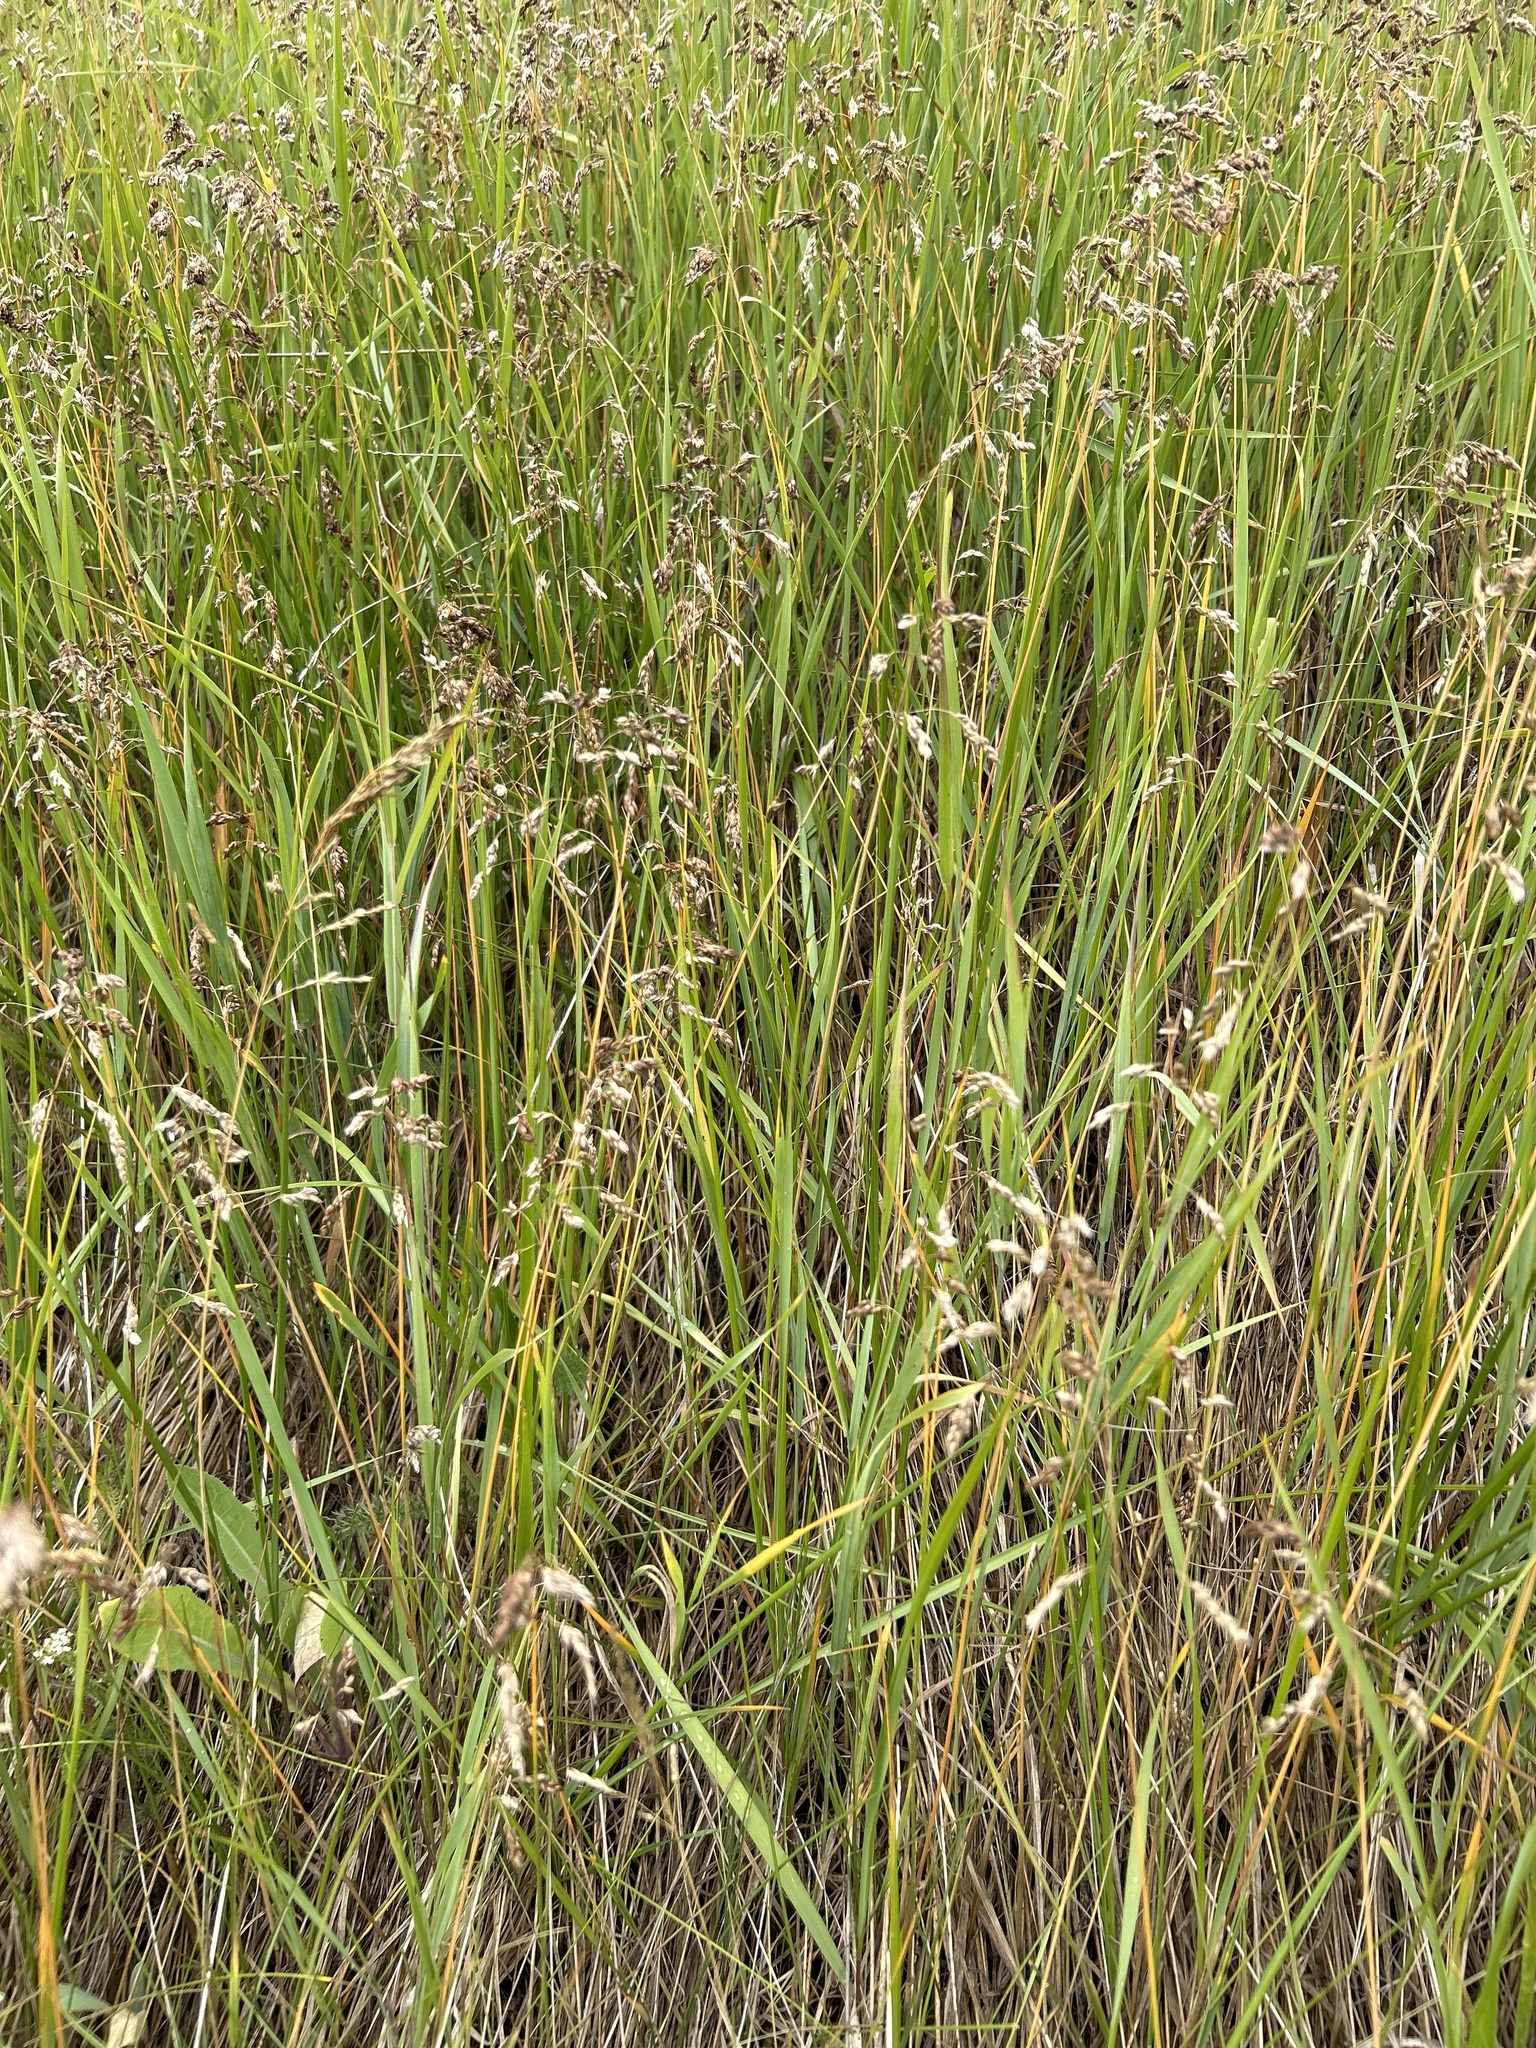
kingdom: Plantae
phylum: Tracheophyta
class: Liliopsida
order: Poales
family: Poaceae
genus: Anthoxanthum
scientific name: Anthoxanthum nitens
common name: Holy grass
